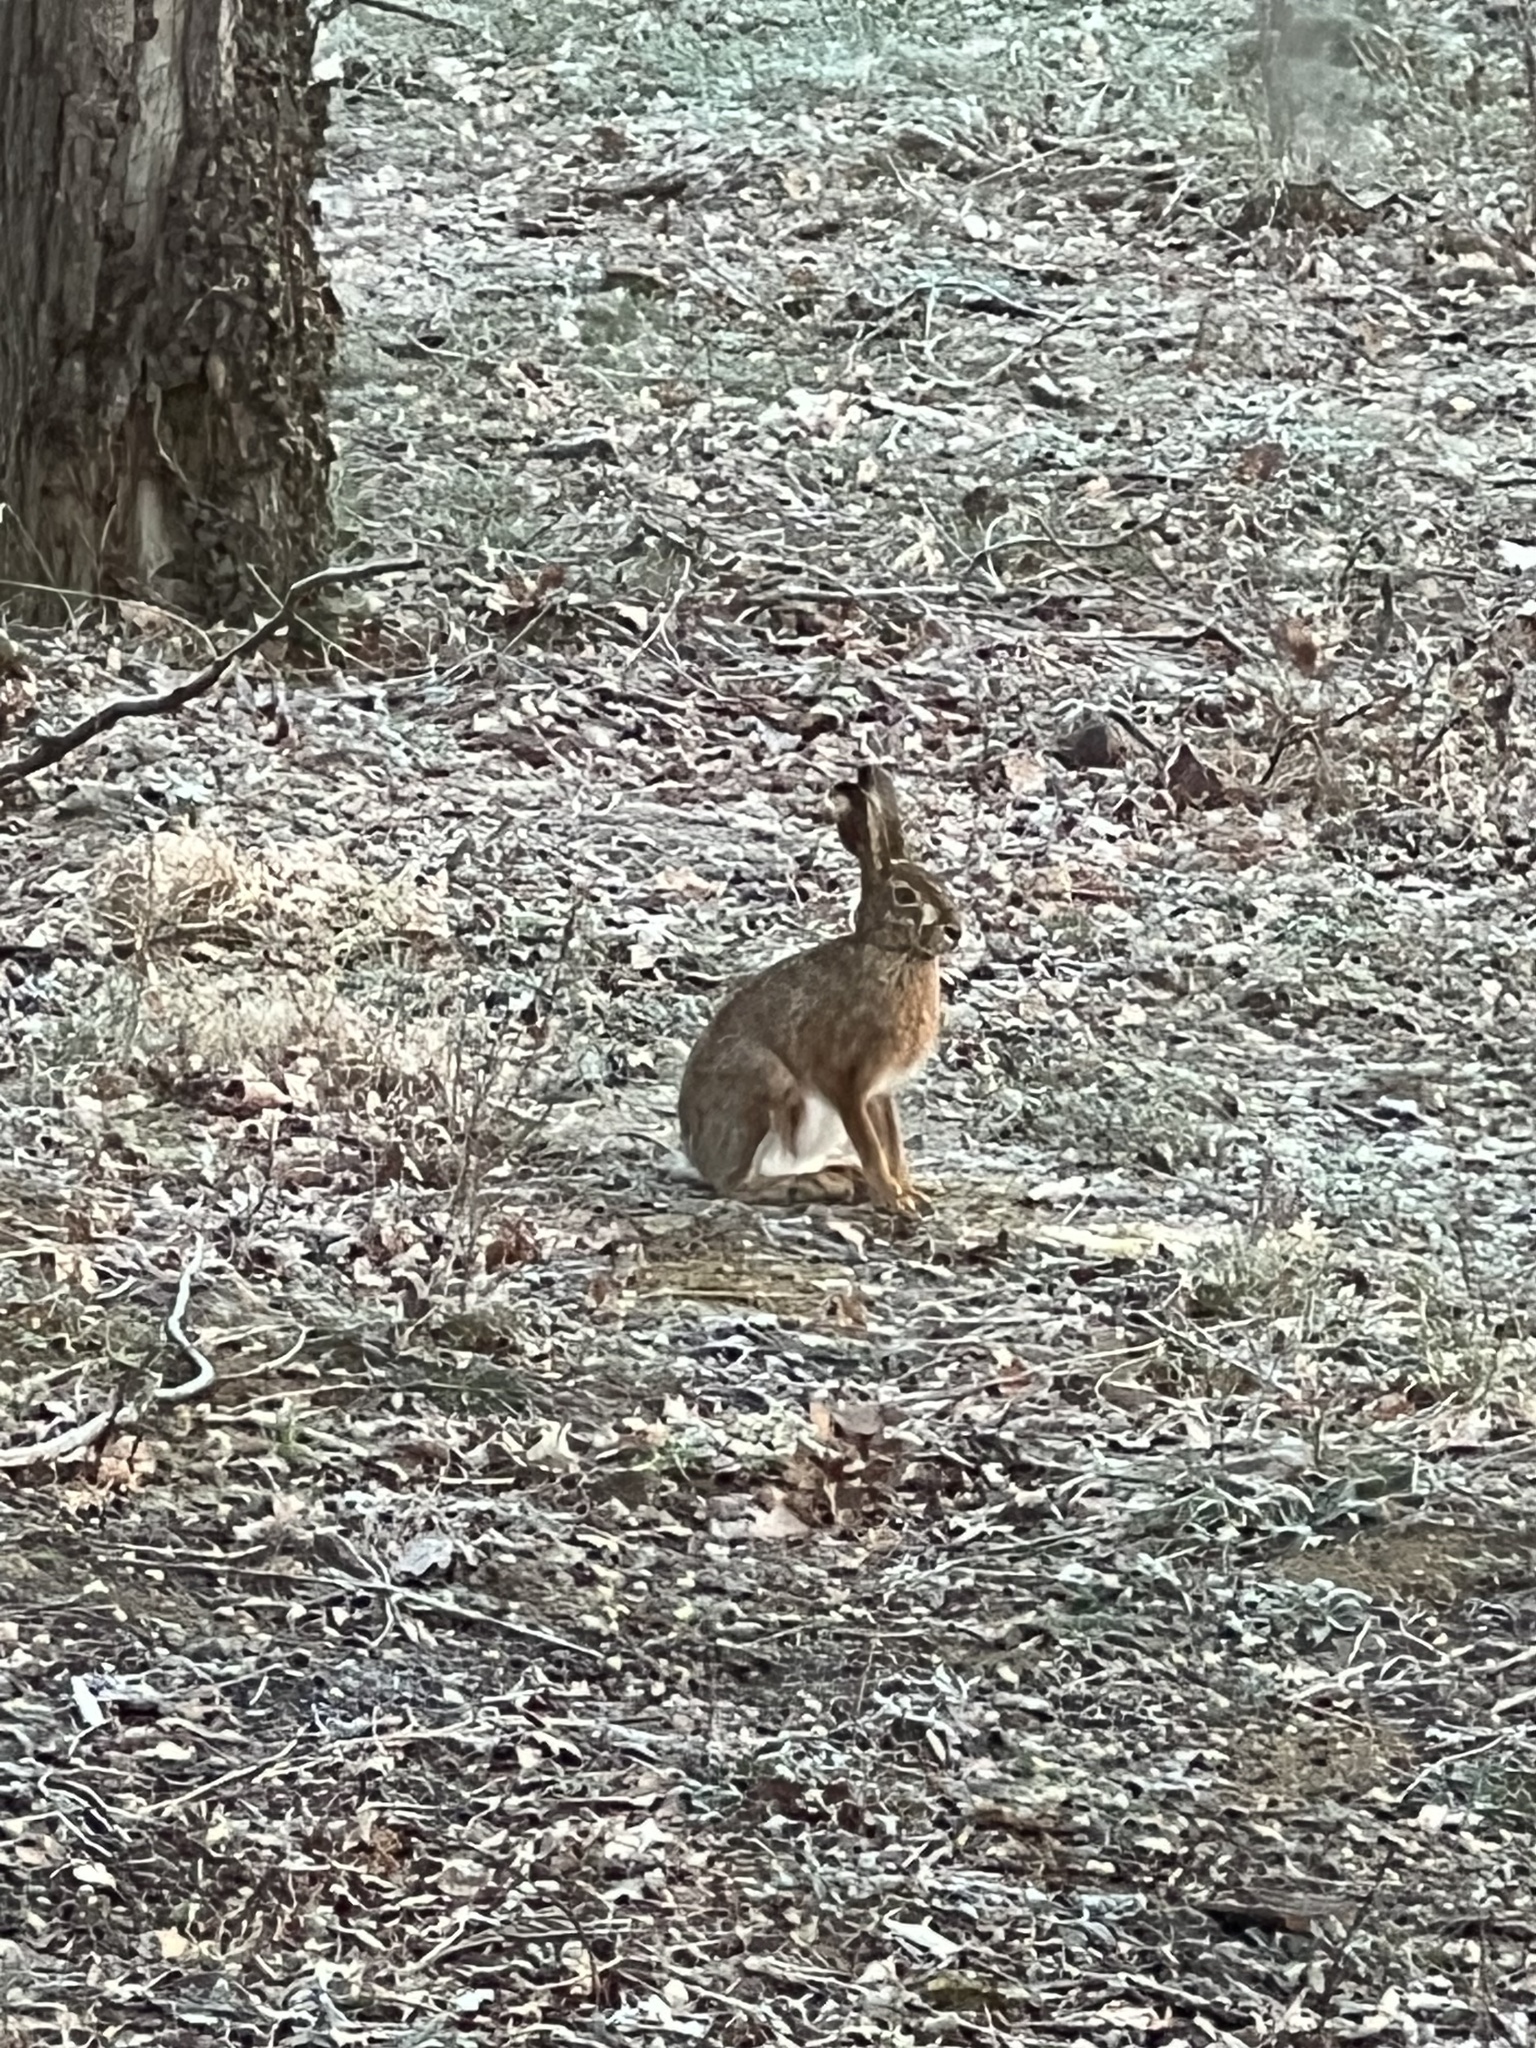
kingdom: Animalia
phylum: Chordata
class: Mammalia
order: Lagomorpha
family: Leporidae
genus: Lepus
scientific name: Lepus europaeus
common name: European hare
